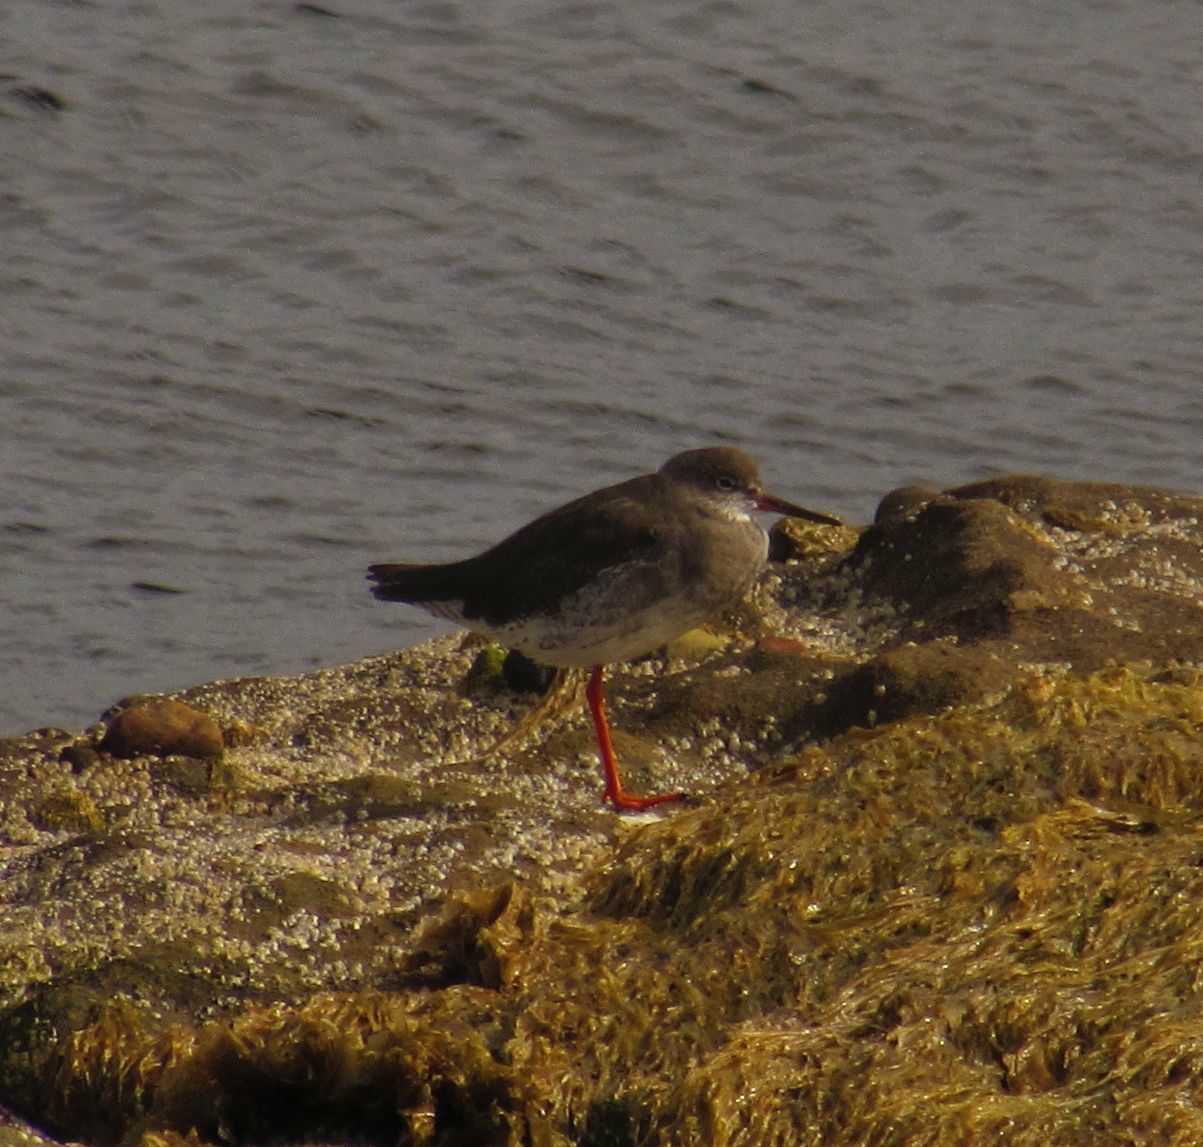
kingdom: Animalia
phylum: Chordata
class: Aves
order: Charadriiformes
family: Scolopacidae
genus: Tringa
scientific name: Tringa totanus
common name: Common redshank
